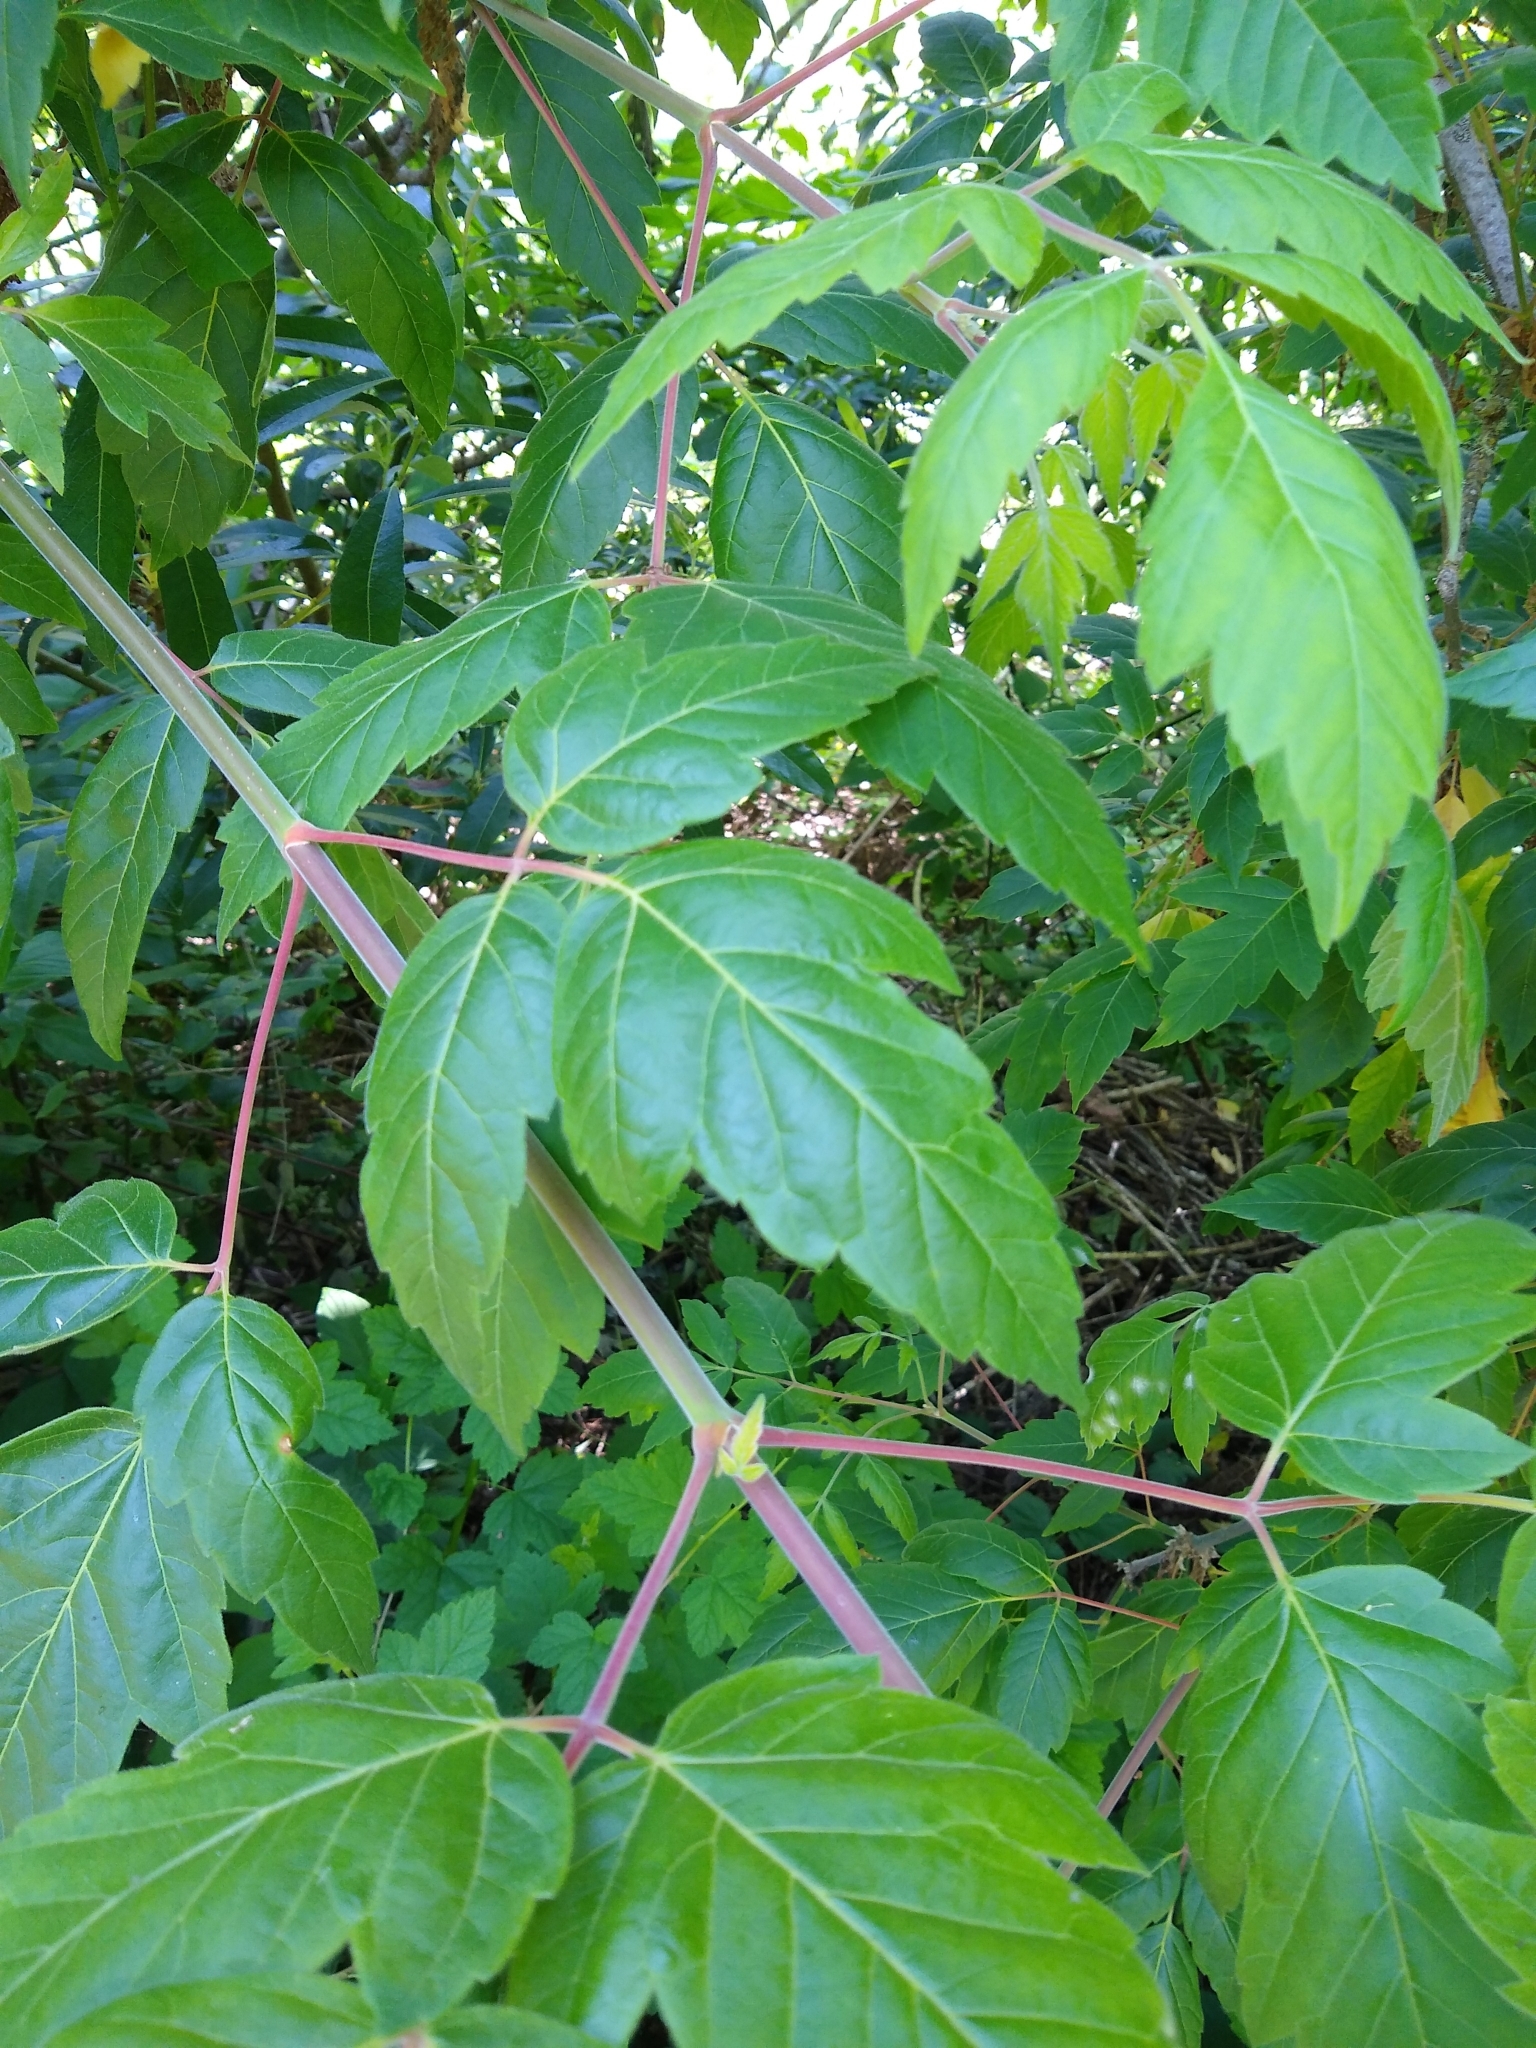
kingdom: Plantae
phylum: Tracheophyta
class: Magnoliopsida
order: Sapindales
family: Sapindaceae
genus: Acer
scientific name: Acer negundo
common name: Ashleaf maple
